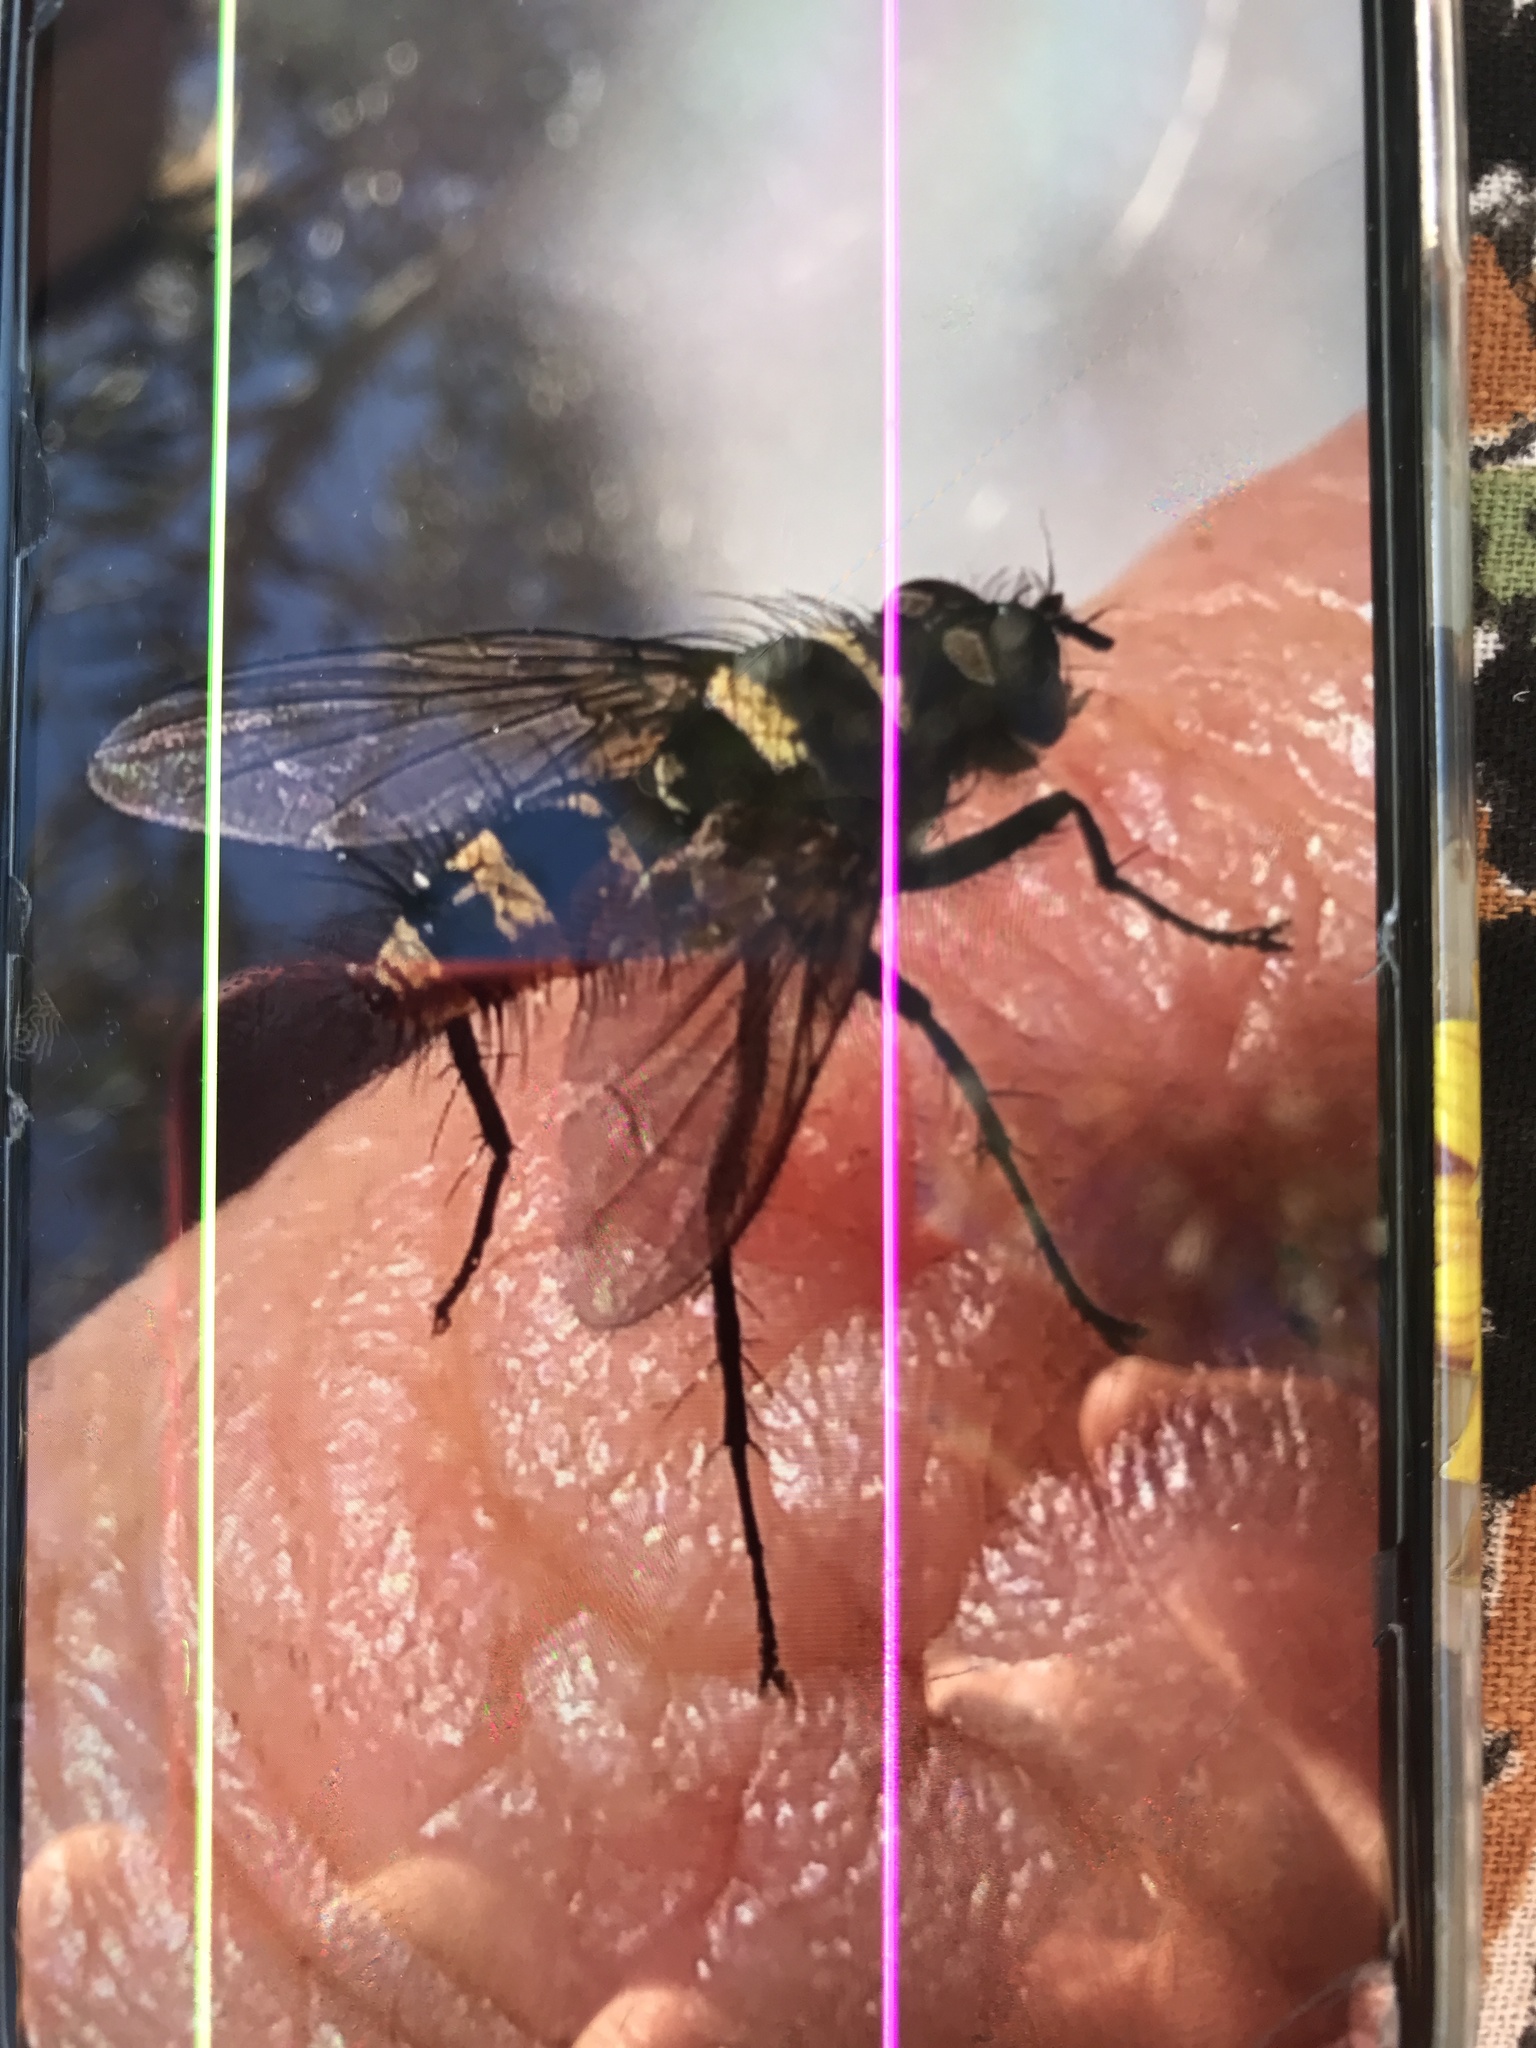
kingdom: Animalia
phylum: Arthropoda
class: Insecta
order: Diptera
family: Tachinidae
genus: Trigonospila
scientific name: Trigonospila brevifacies
